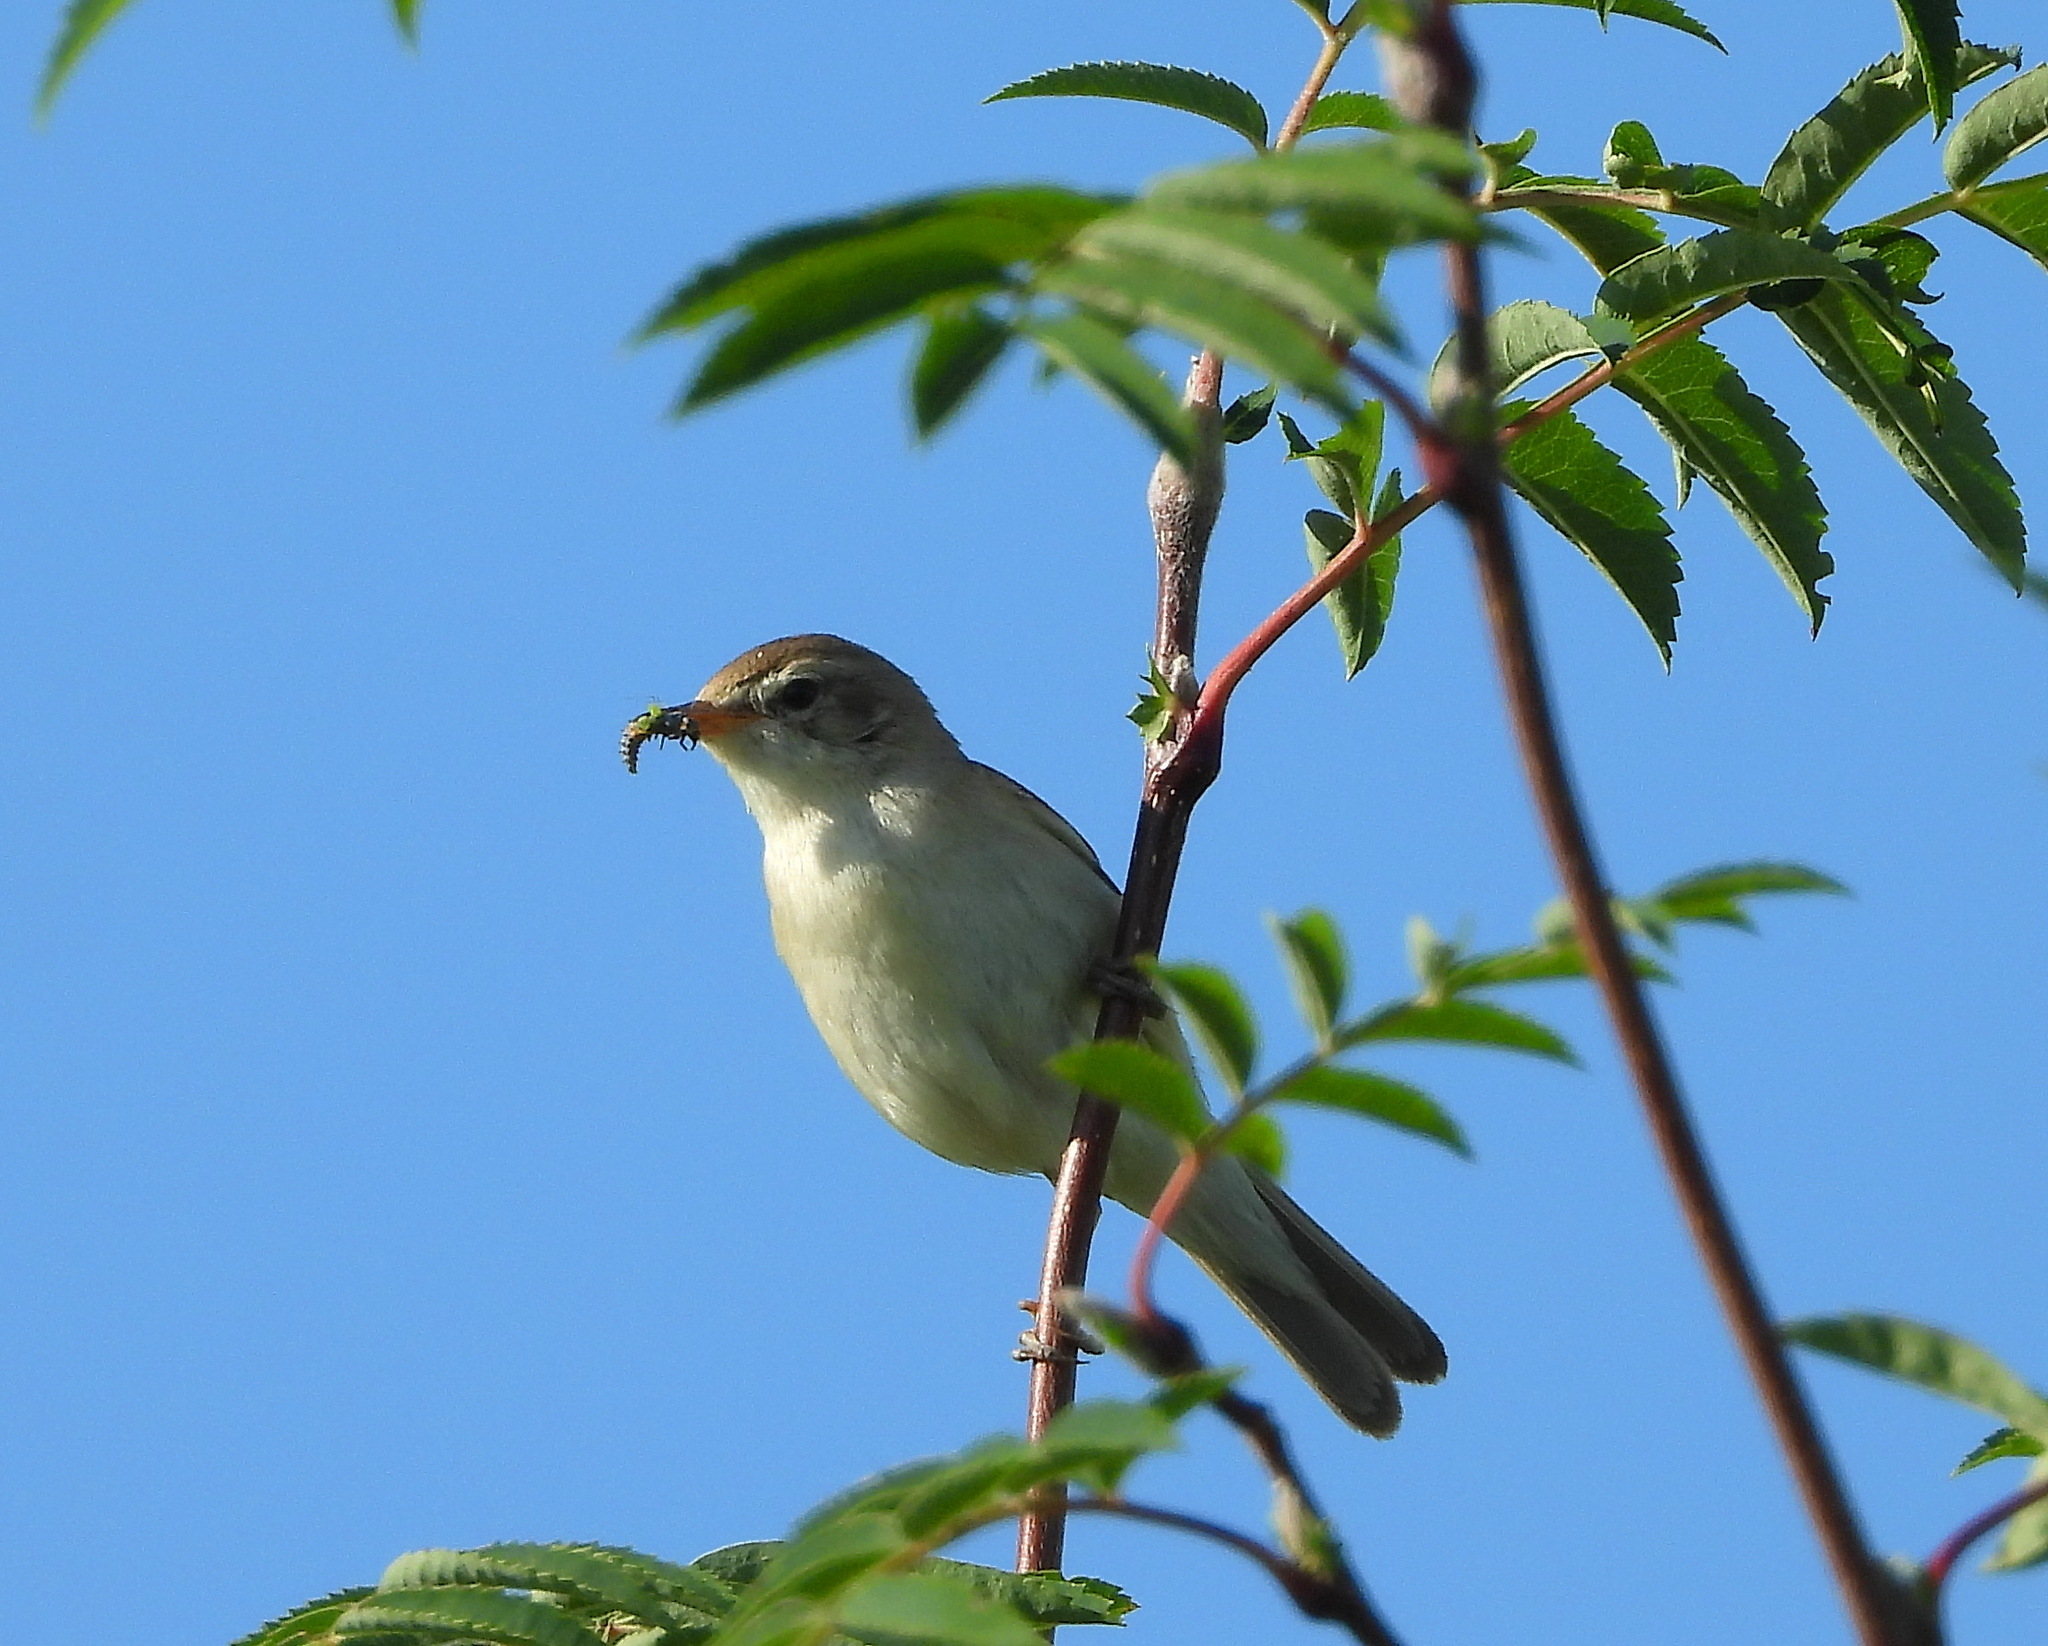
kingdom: Animalia
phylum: Chordata
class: Aves
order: Passeriformes
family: Acrocephalidae
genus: Iduna
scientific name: Iduna caligata
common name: Booted warbler
